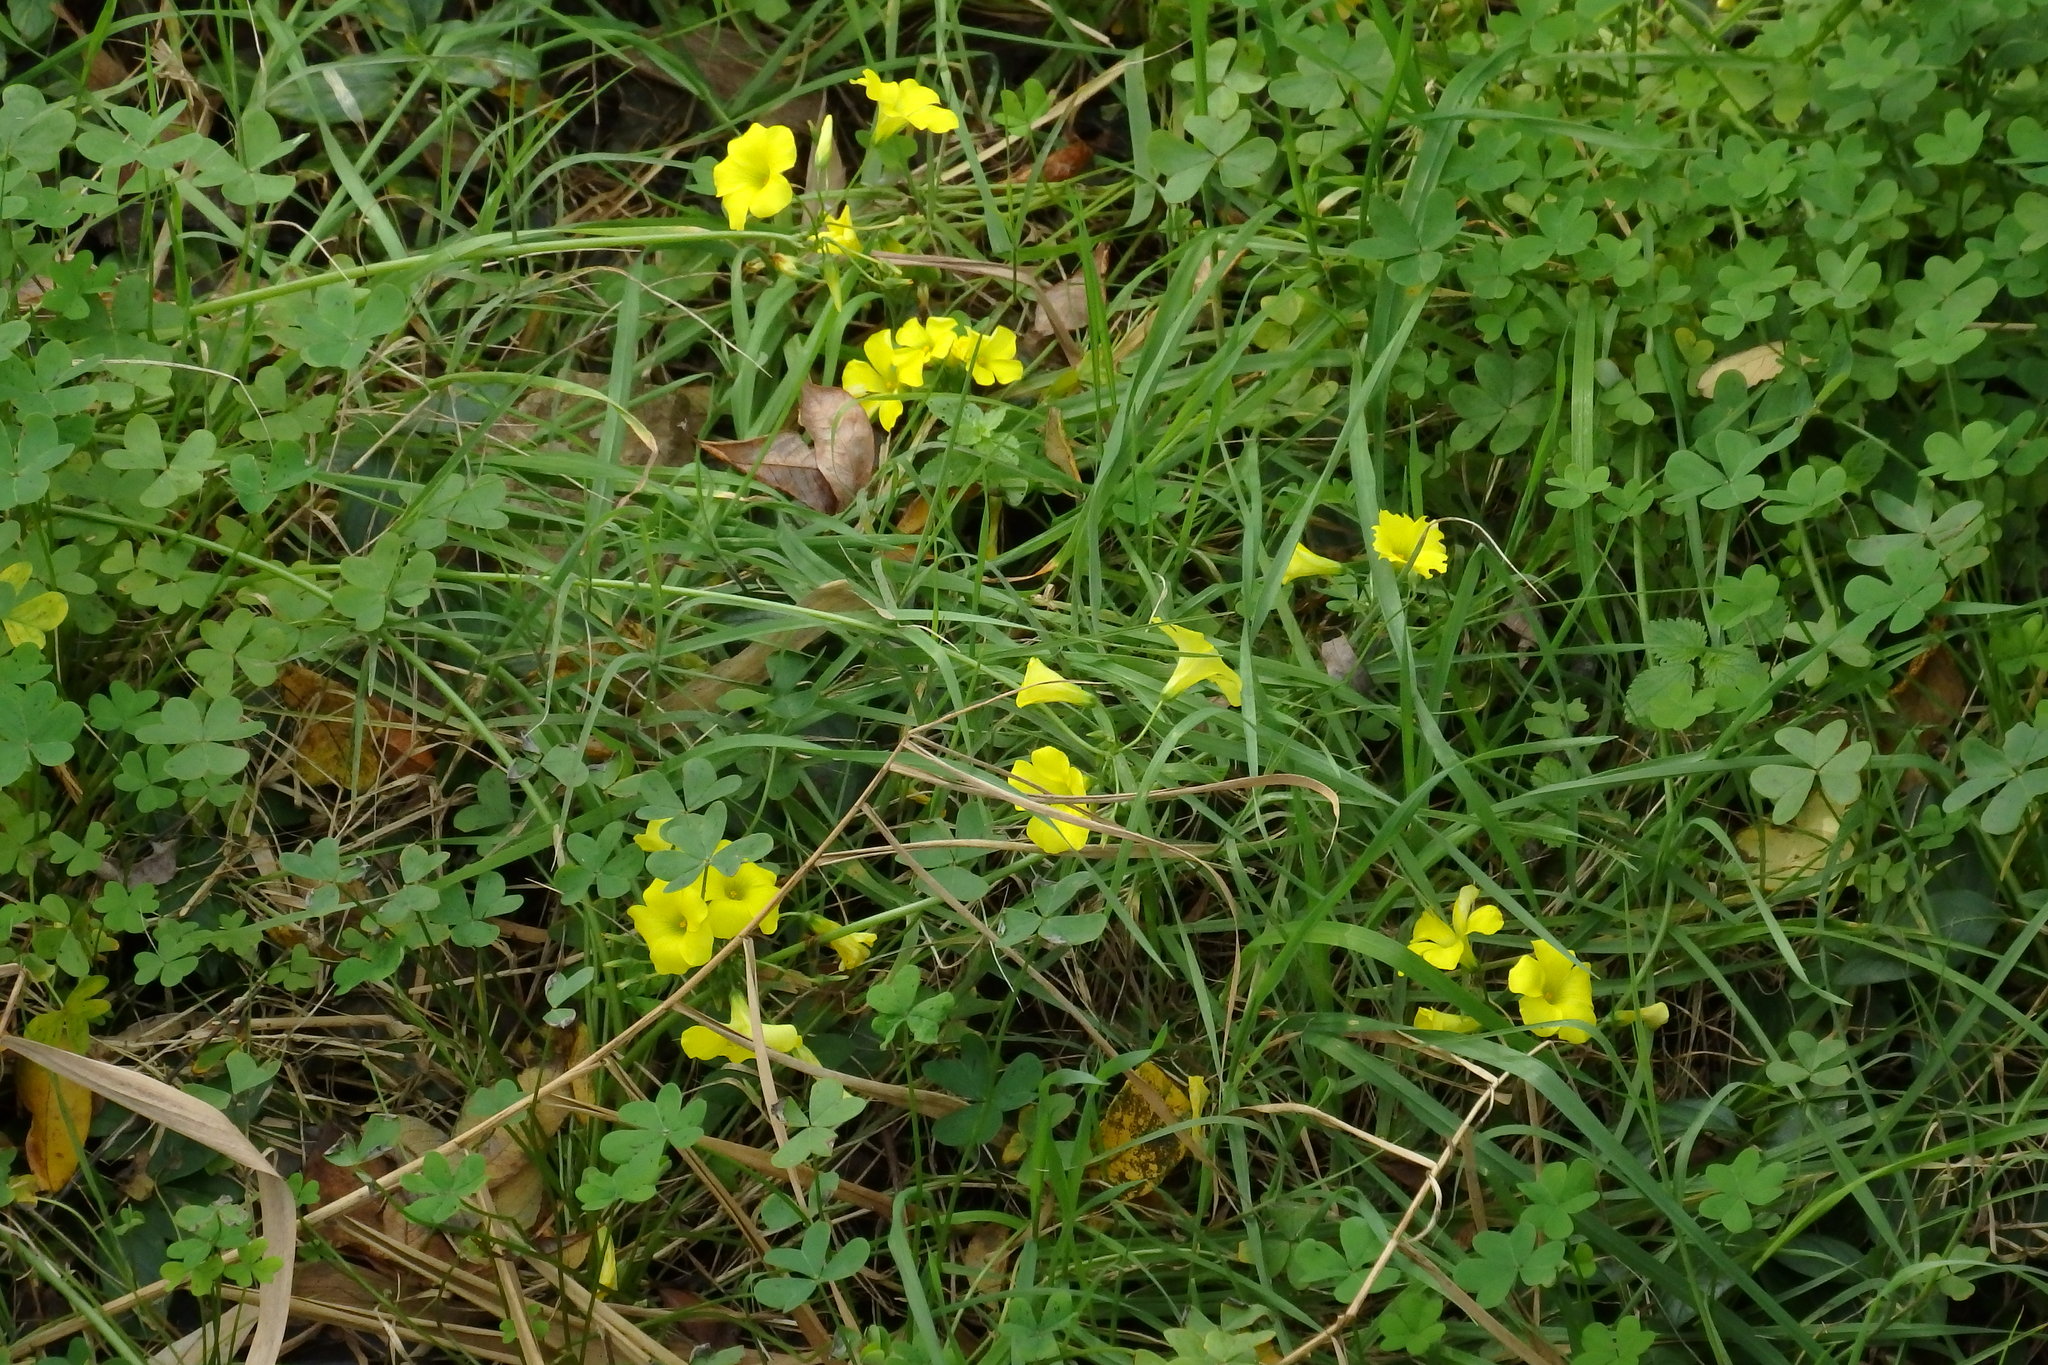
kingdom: Plantae
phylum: Tracheophyta
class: Magnoliopsida
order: Oxalidales
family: Oxalidaceae
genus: Oxalis
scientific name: Oxalis pes-caprae
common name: Bermuda-buttercup
